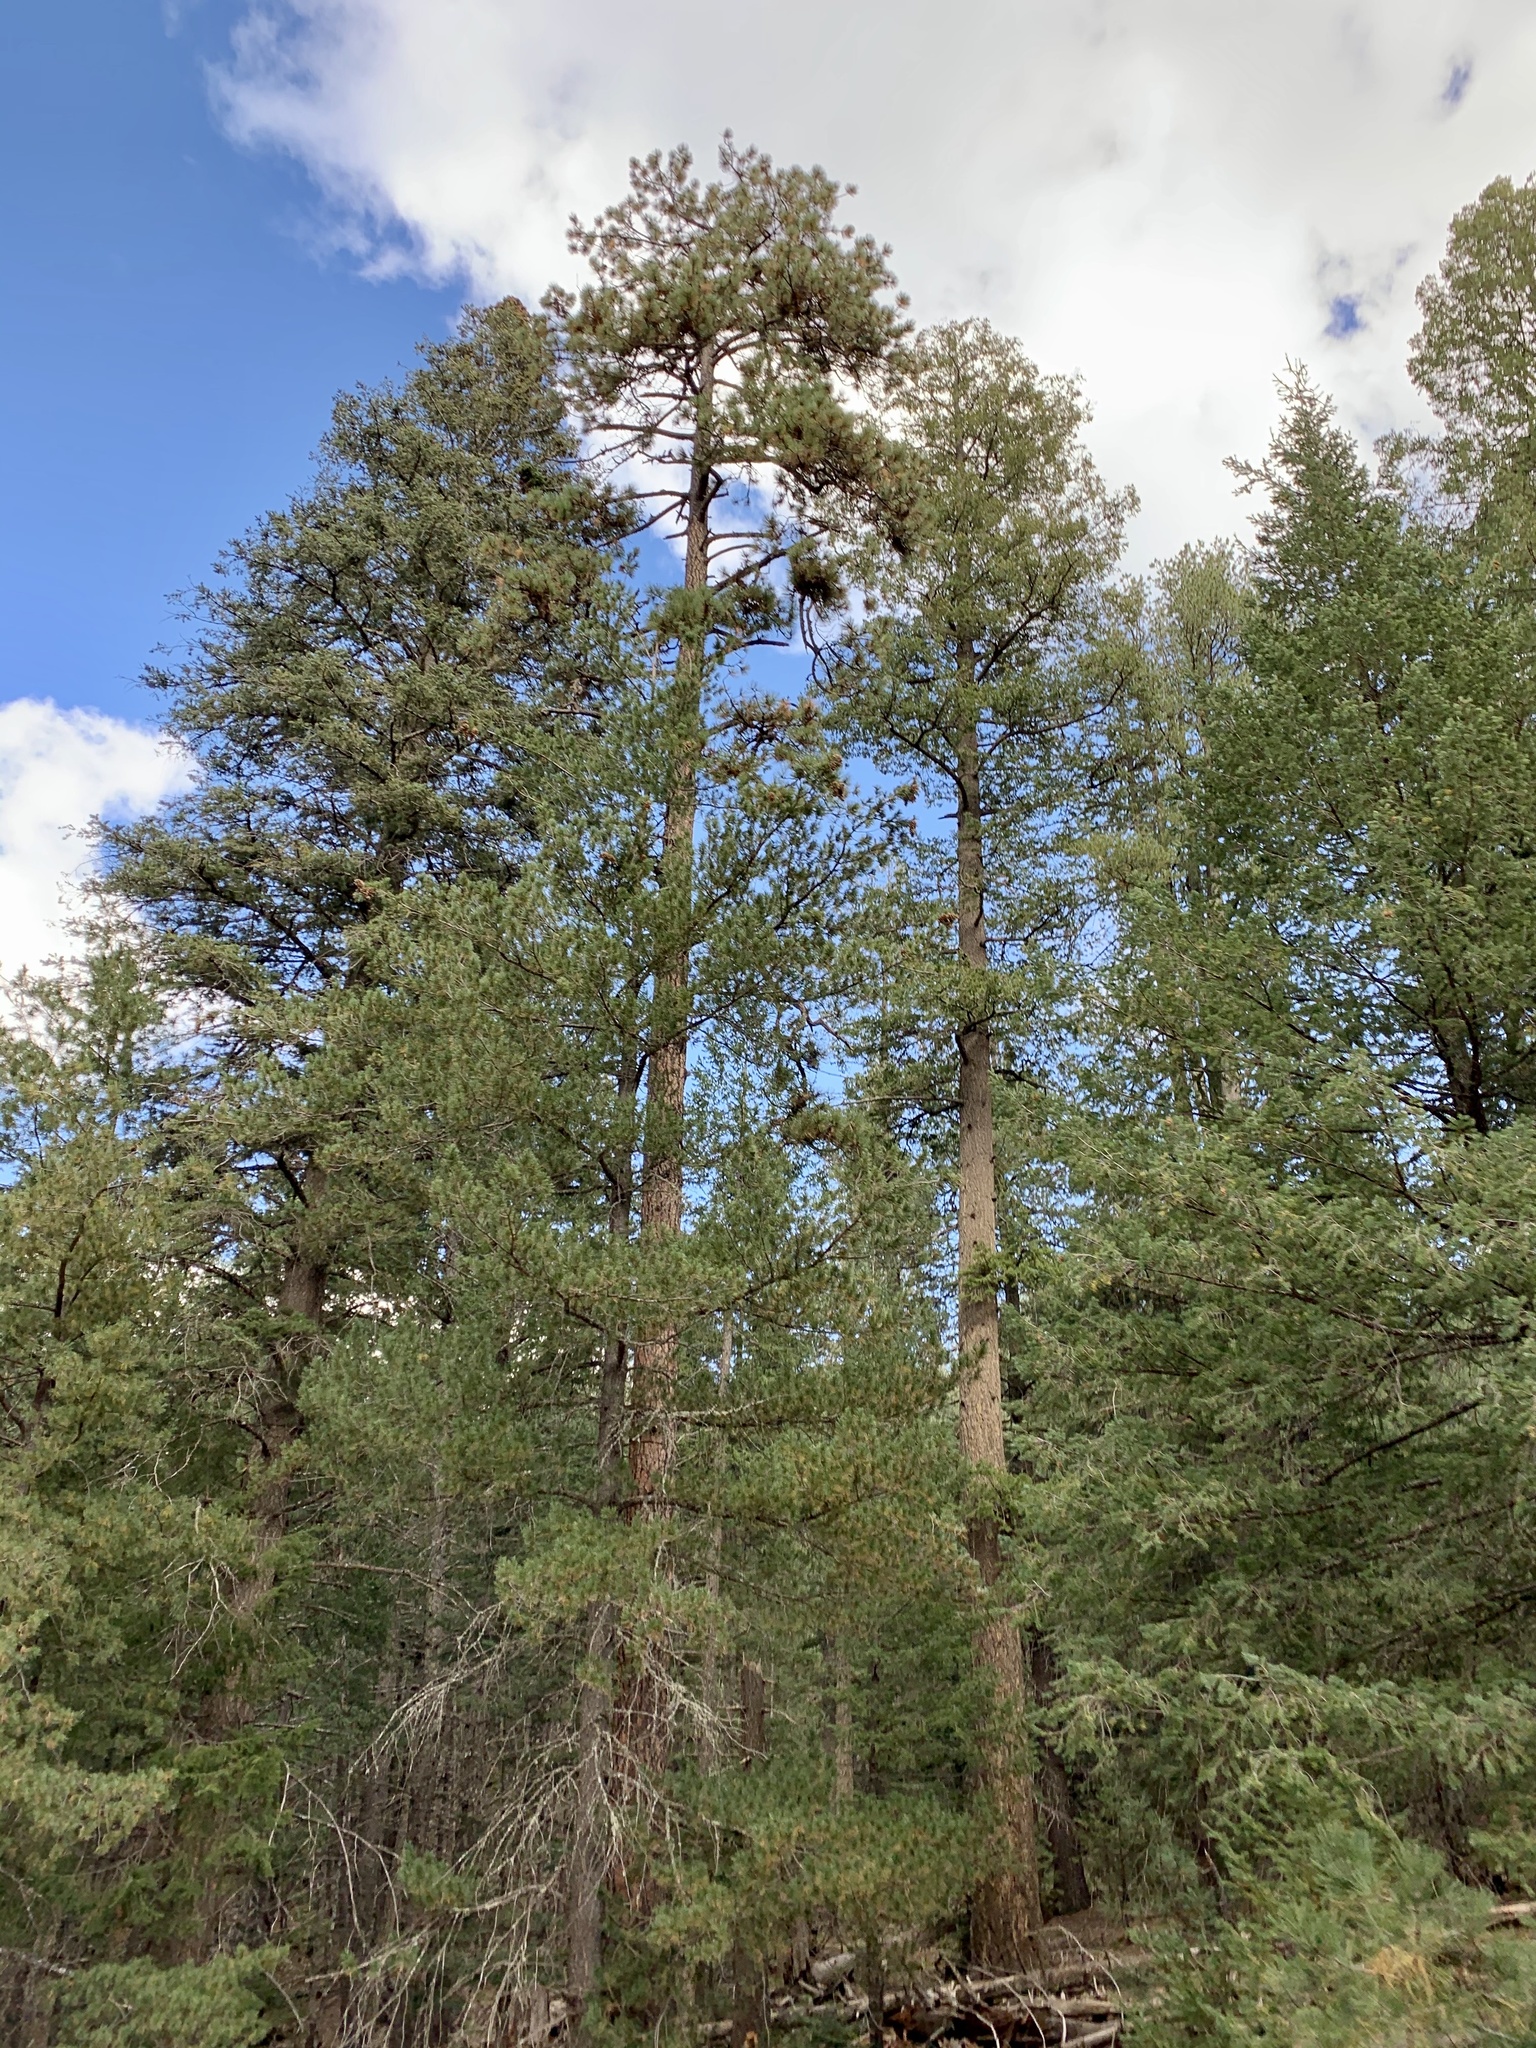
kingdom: Plantae
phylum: Tracheophyta
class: Pinopsida
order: Pinales
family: Pinaceae
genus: Pinus
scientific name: Pinus ponderosa
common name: Western yellow-pine
